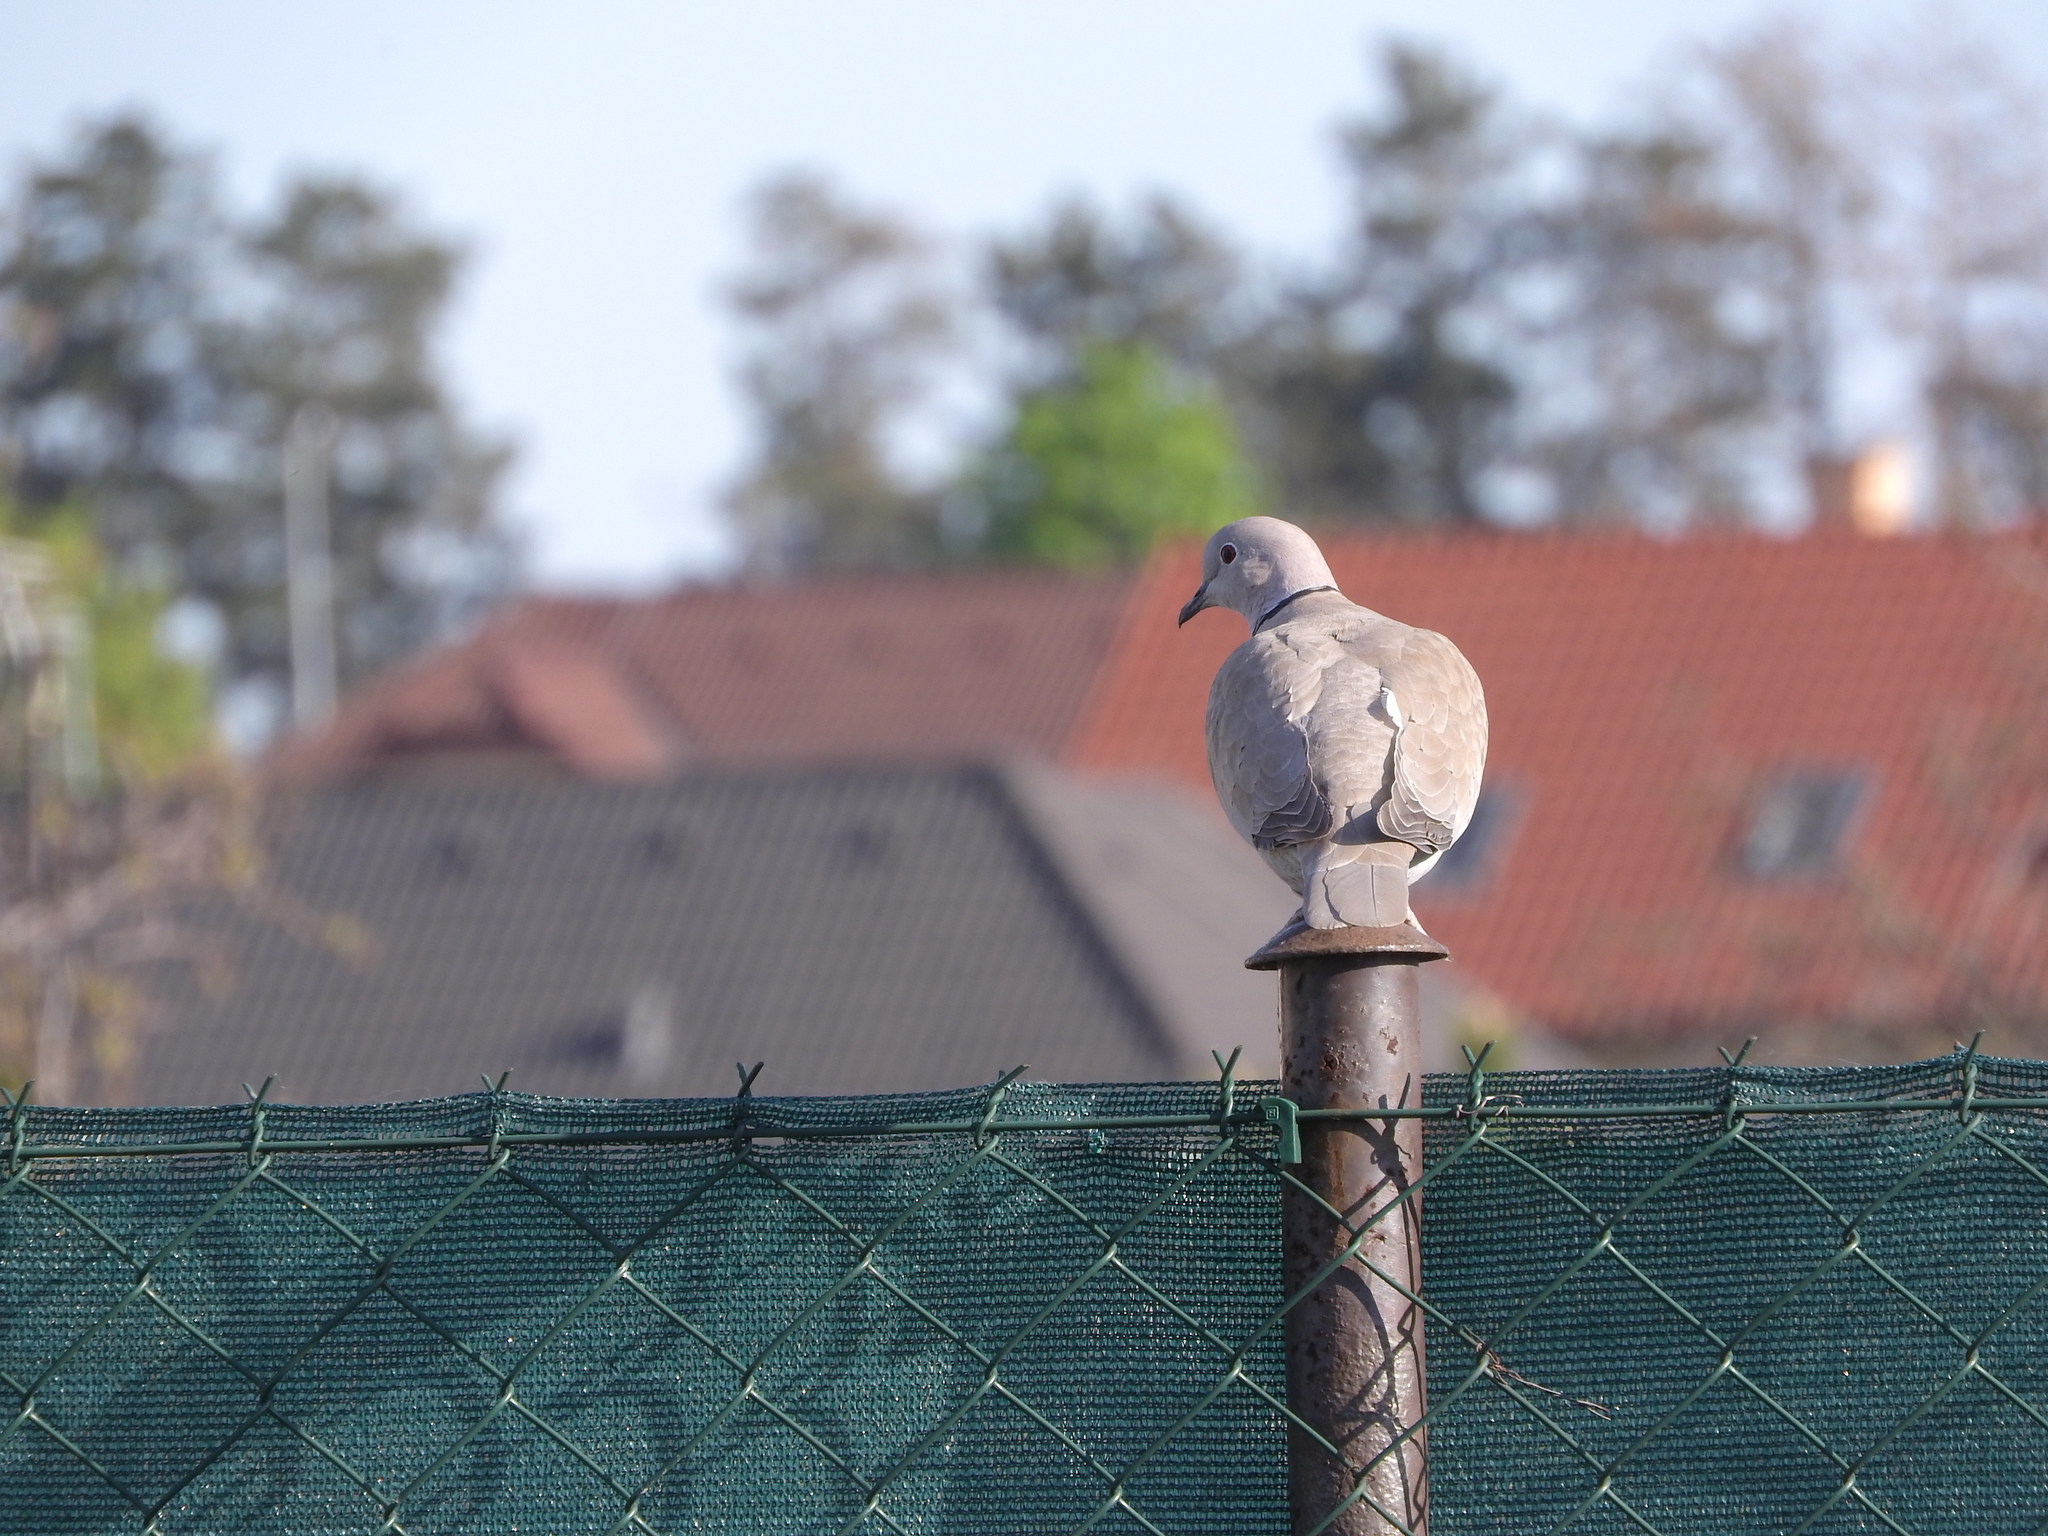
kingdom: Animalia
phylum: Chordata
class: Aves
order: Columbiformes
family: Columbidae
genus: Streptopelia
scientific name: Streptopelia decaocto
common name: Eurasian collared dove
